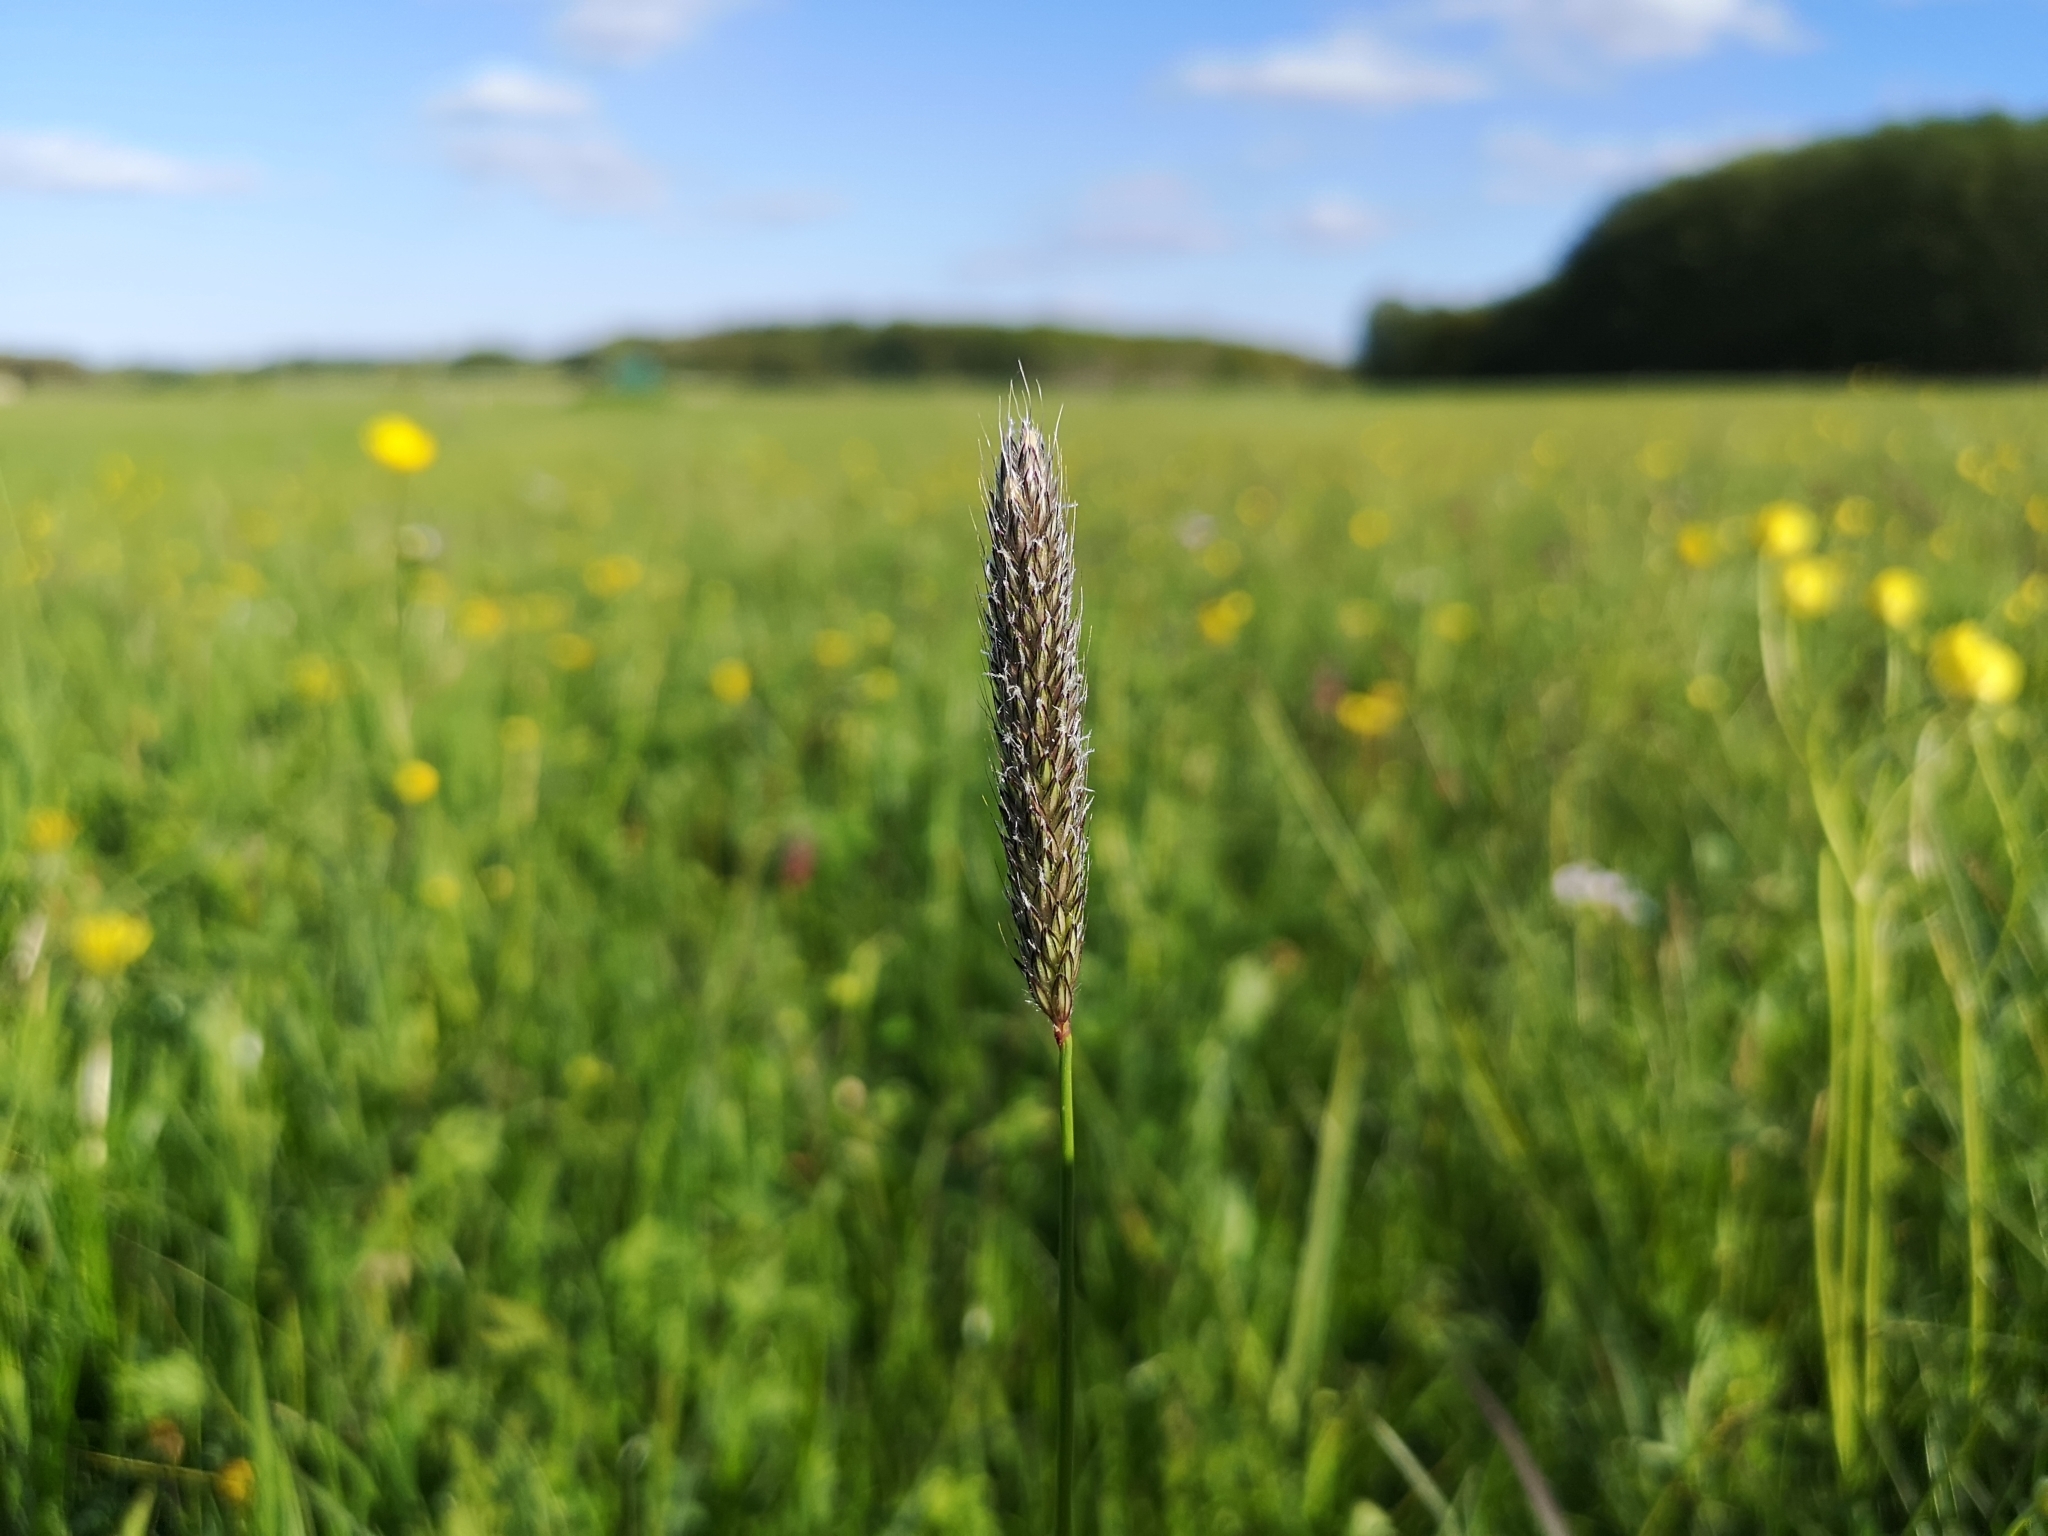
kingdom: Plantae
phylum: Tracheophyta
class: Liliopsida
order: Poales
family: Poaceae
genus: Alopecurus
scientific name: Alopecurus pratensis
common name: Meadow foxtail
